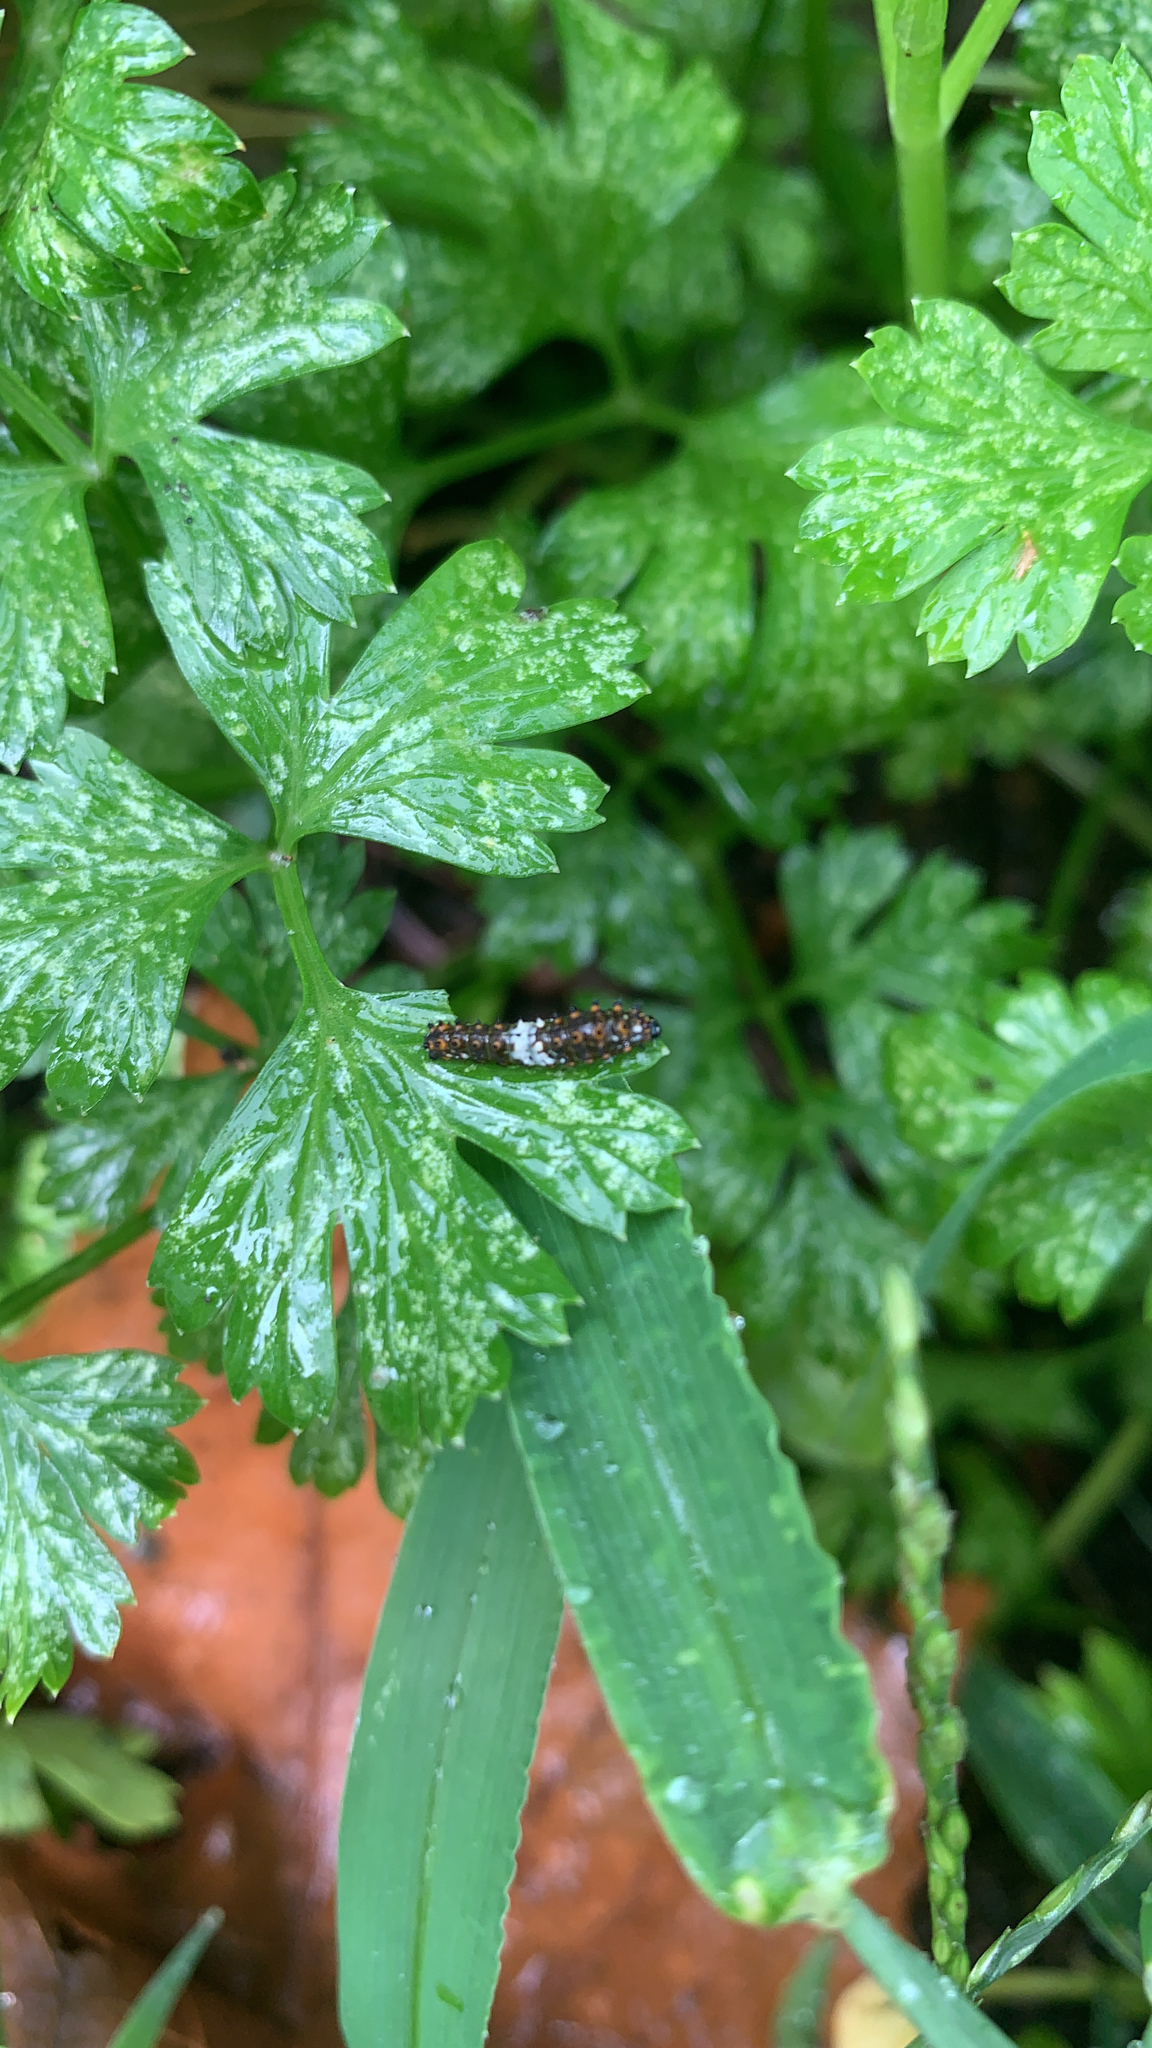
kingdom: Animalia
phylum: Arthropoda
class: Insecta
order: Lepidoptera
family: Papilionidae
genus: Papilio
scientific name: Papilio polyxenes
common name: Black swallowtail
